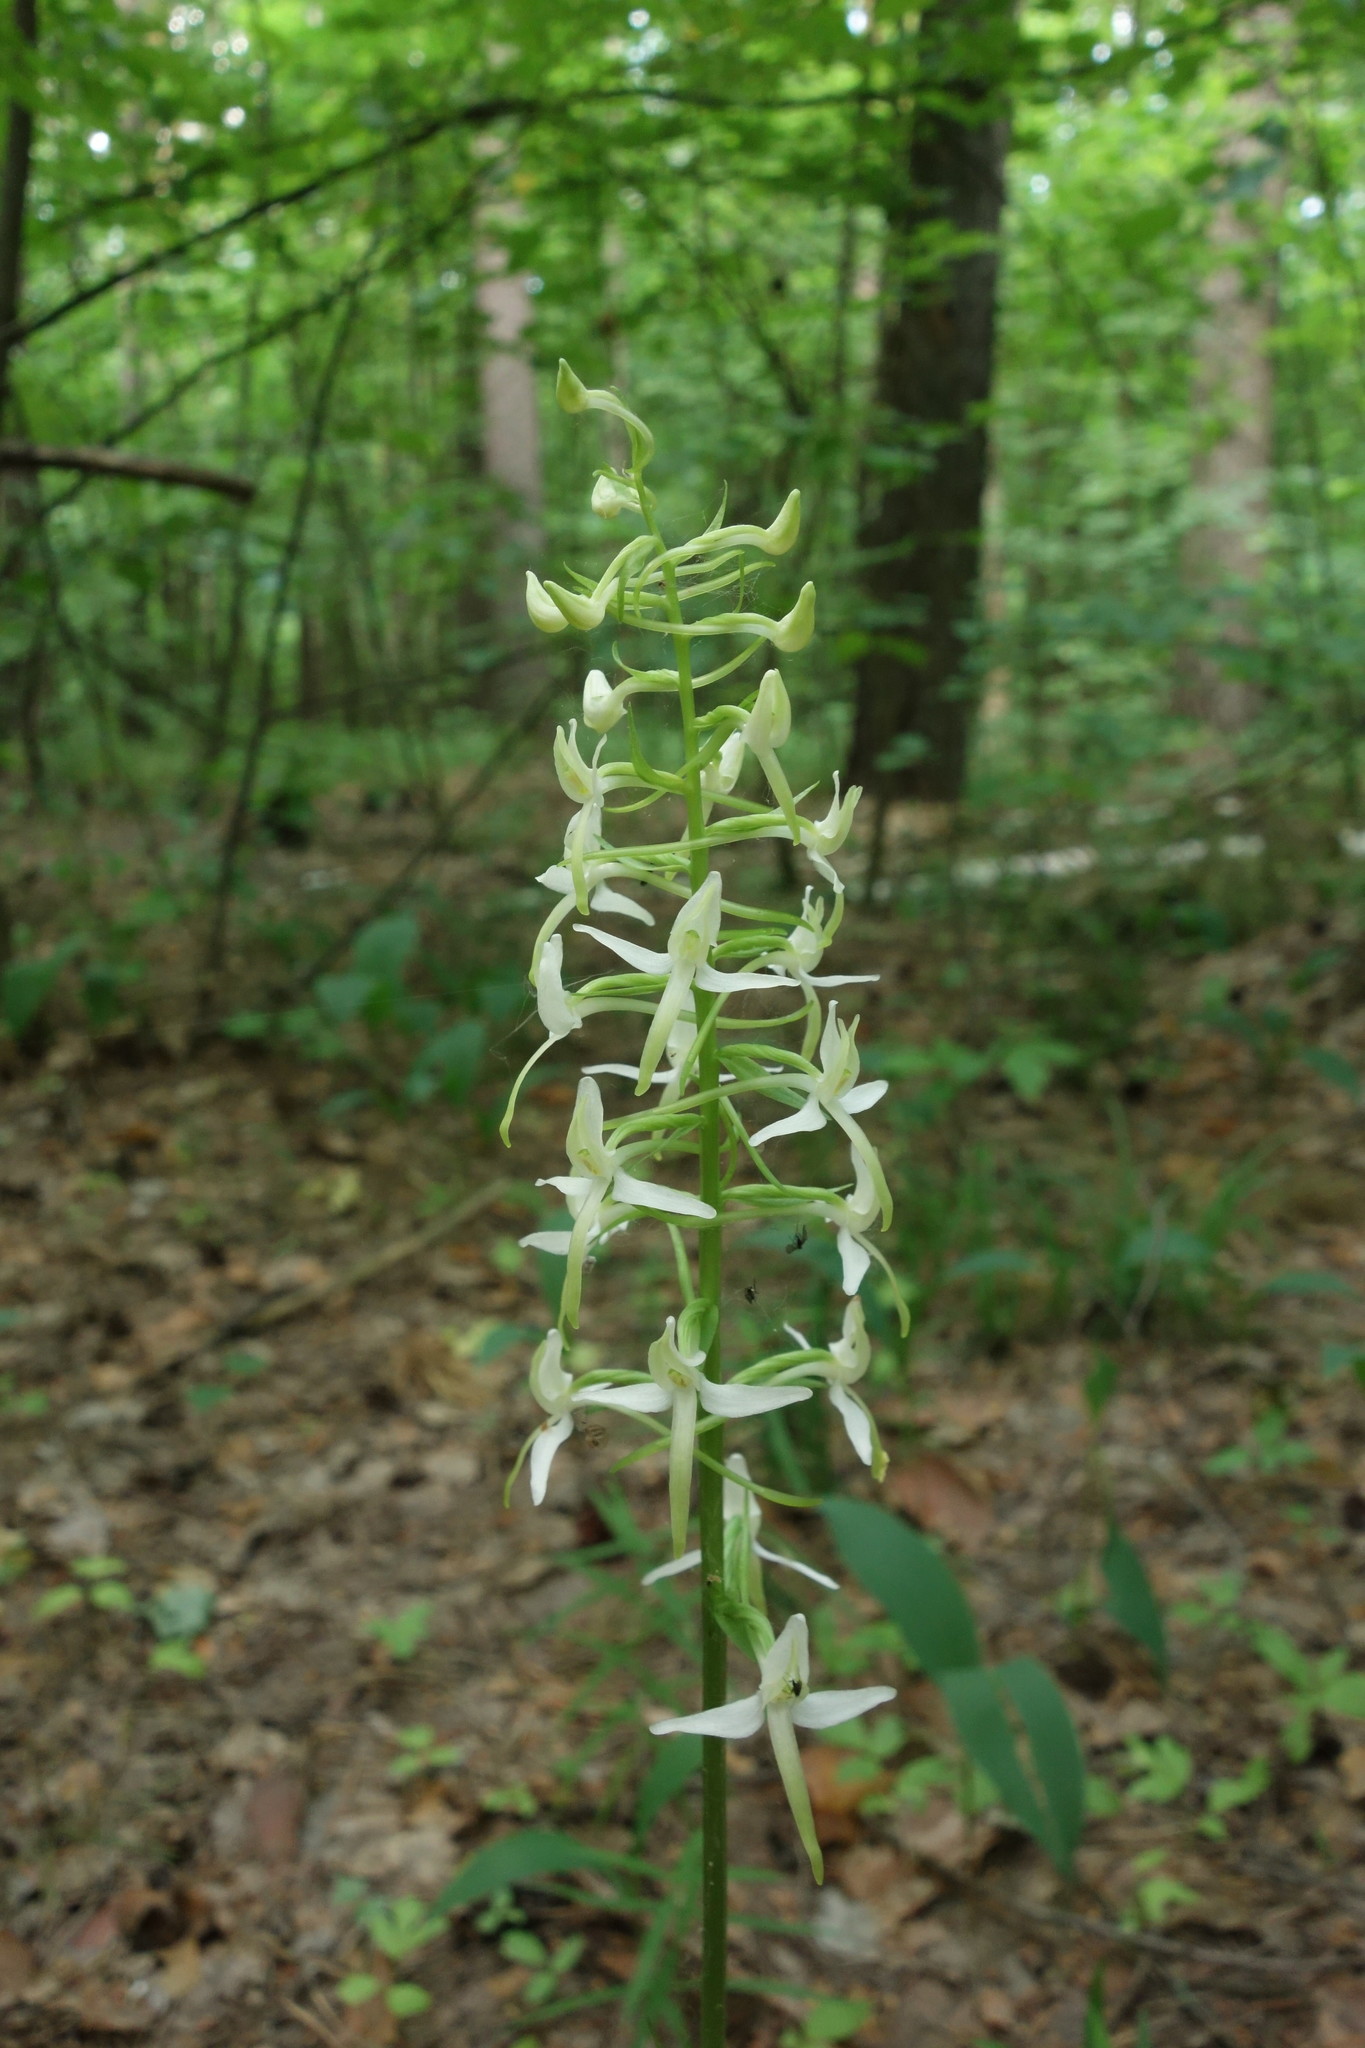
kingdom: Plantae
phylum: Tracheophyta
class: Liliopsida
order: Asparagales
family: Orchidaceae
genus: Platanthera
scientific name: Platanthera bifolia
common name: Lesser butterfly-orchid
